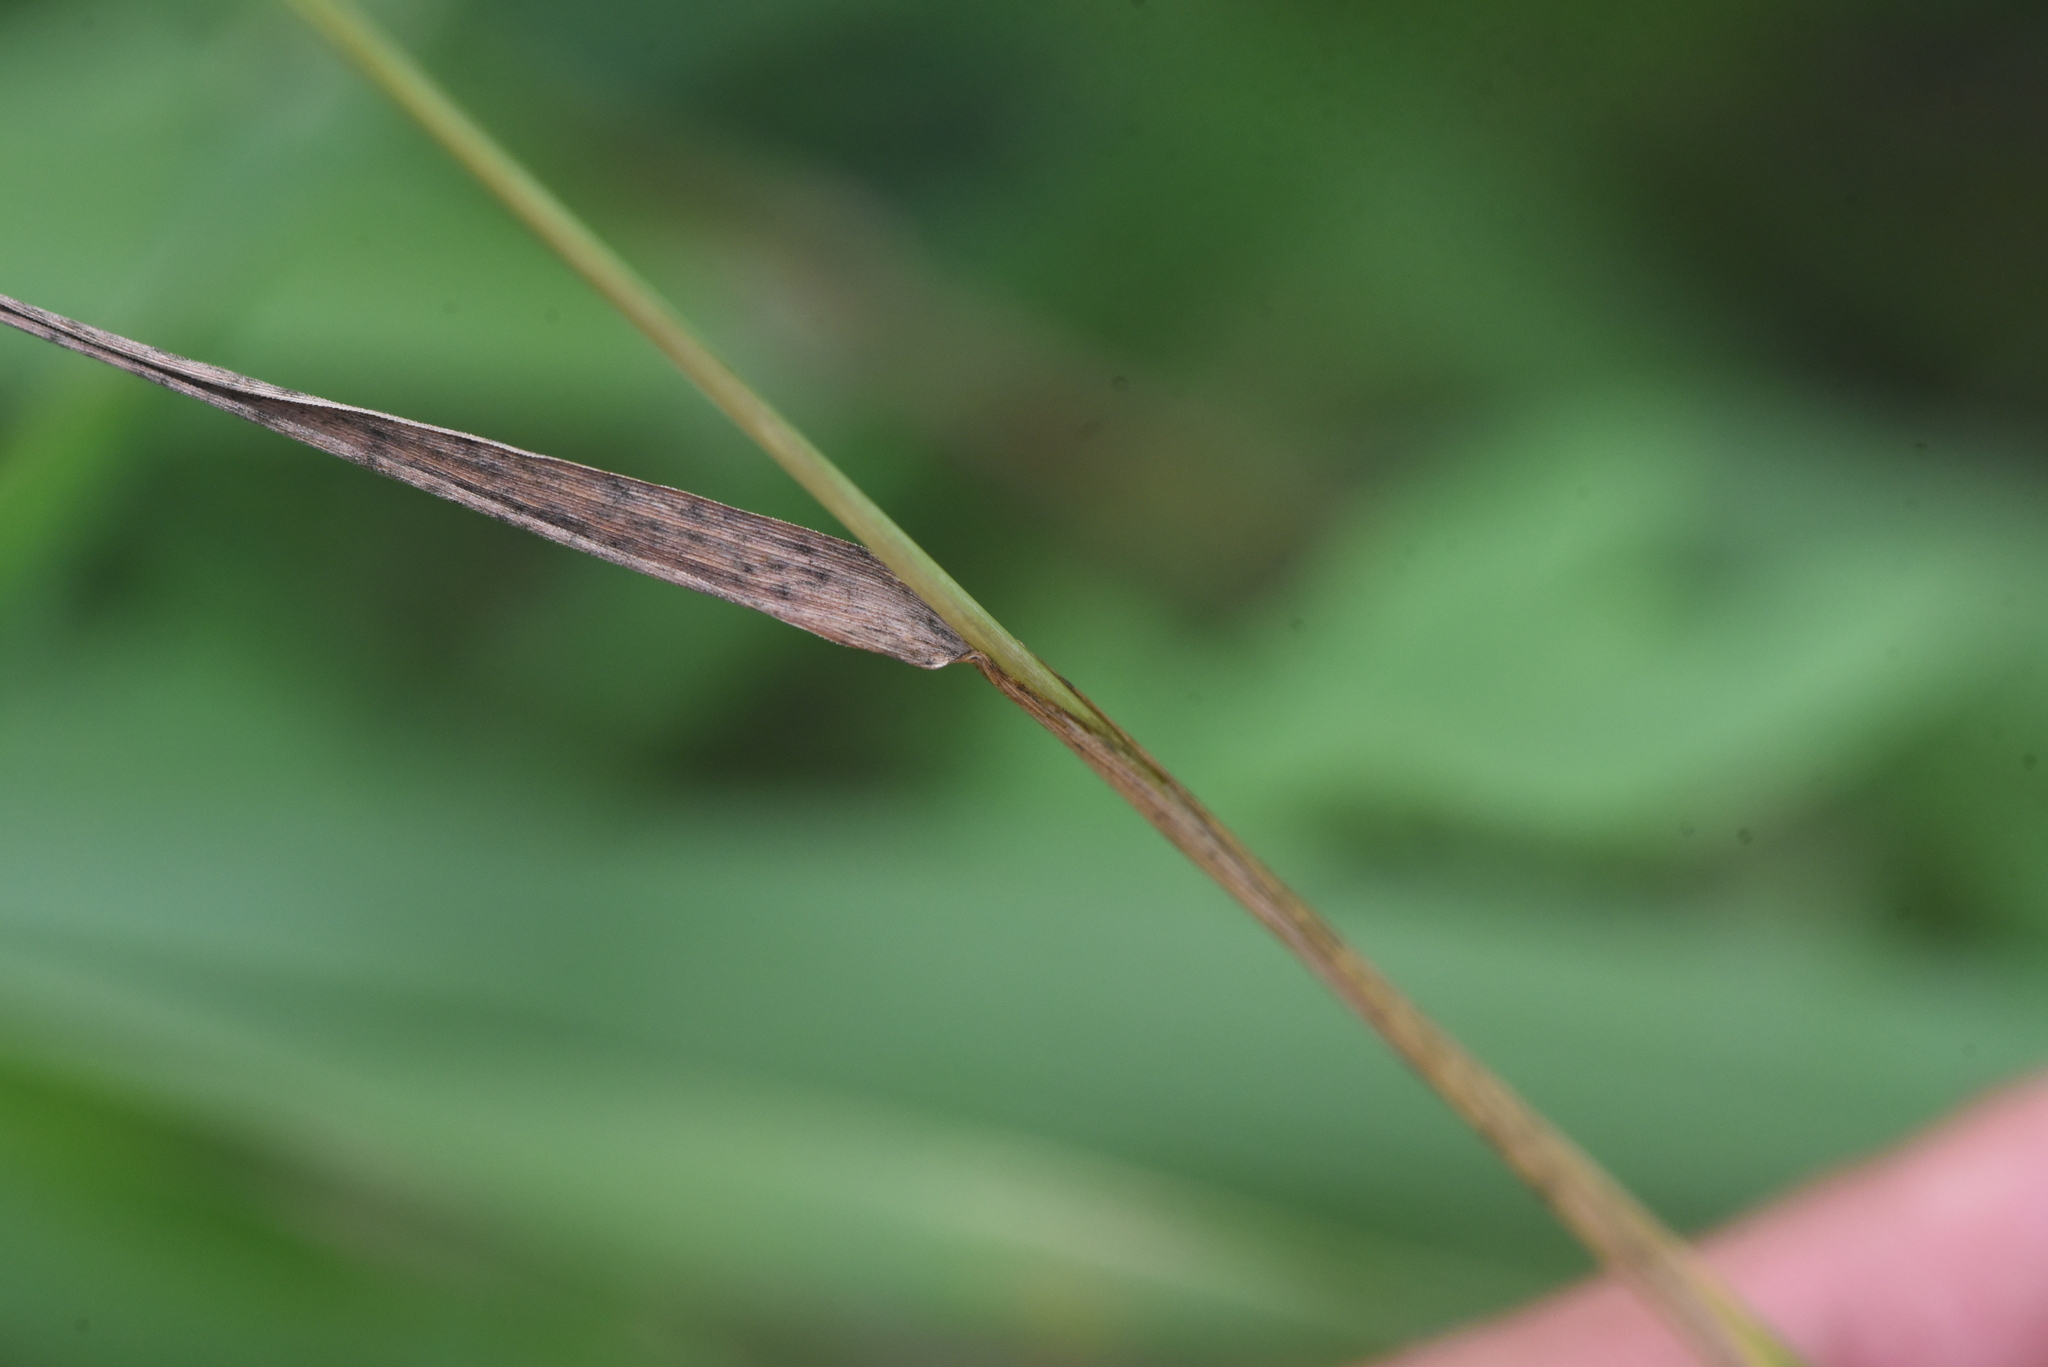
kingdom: Plantae
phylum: Tracheophyta
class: Liliopsida
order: Poales
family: Poaceae
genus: Phleum
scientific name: Phleum pratense
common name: Timothy grass
